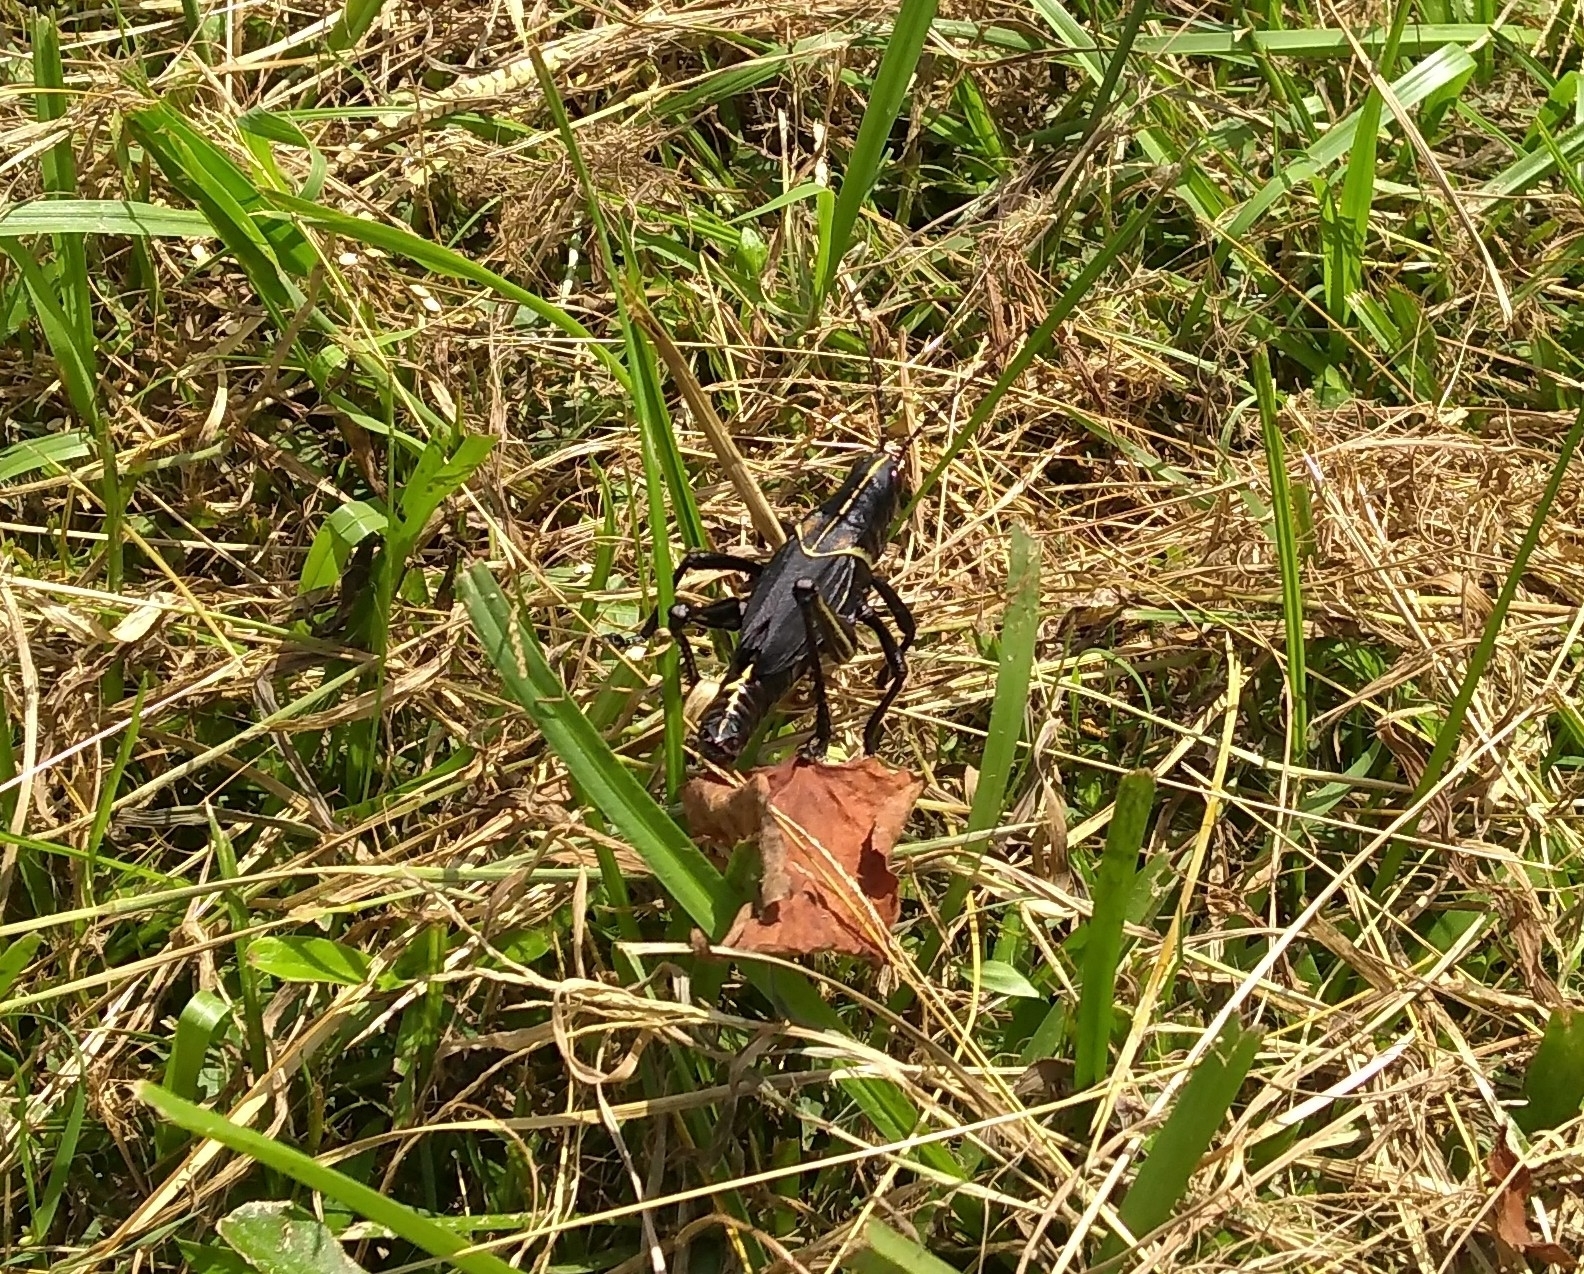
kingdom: Animalia
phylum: Arthropoda
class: Insecta
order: Orthoptera
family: Romaleidae
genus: Romalea
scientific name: Romalea microptera
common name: Eastern lubber grasshopper
